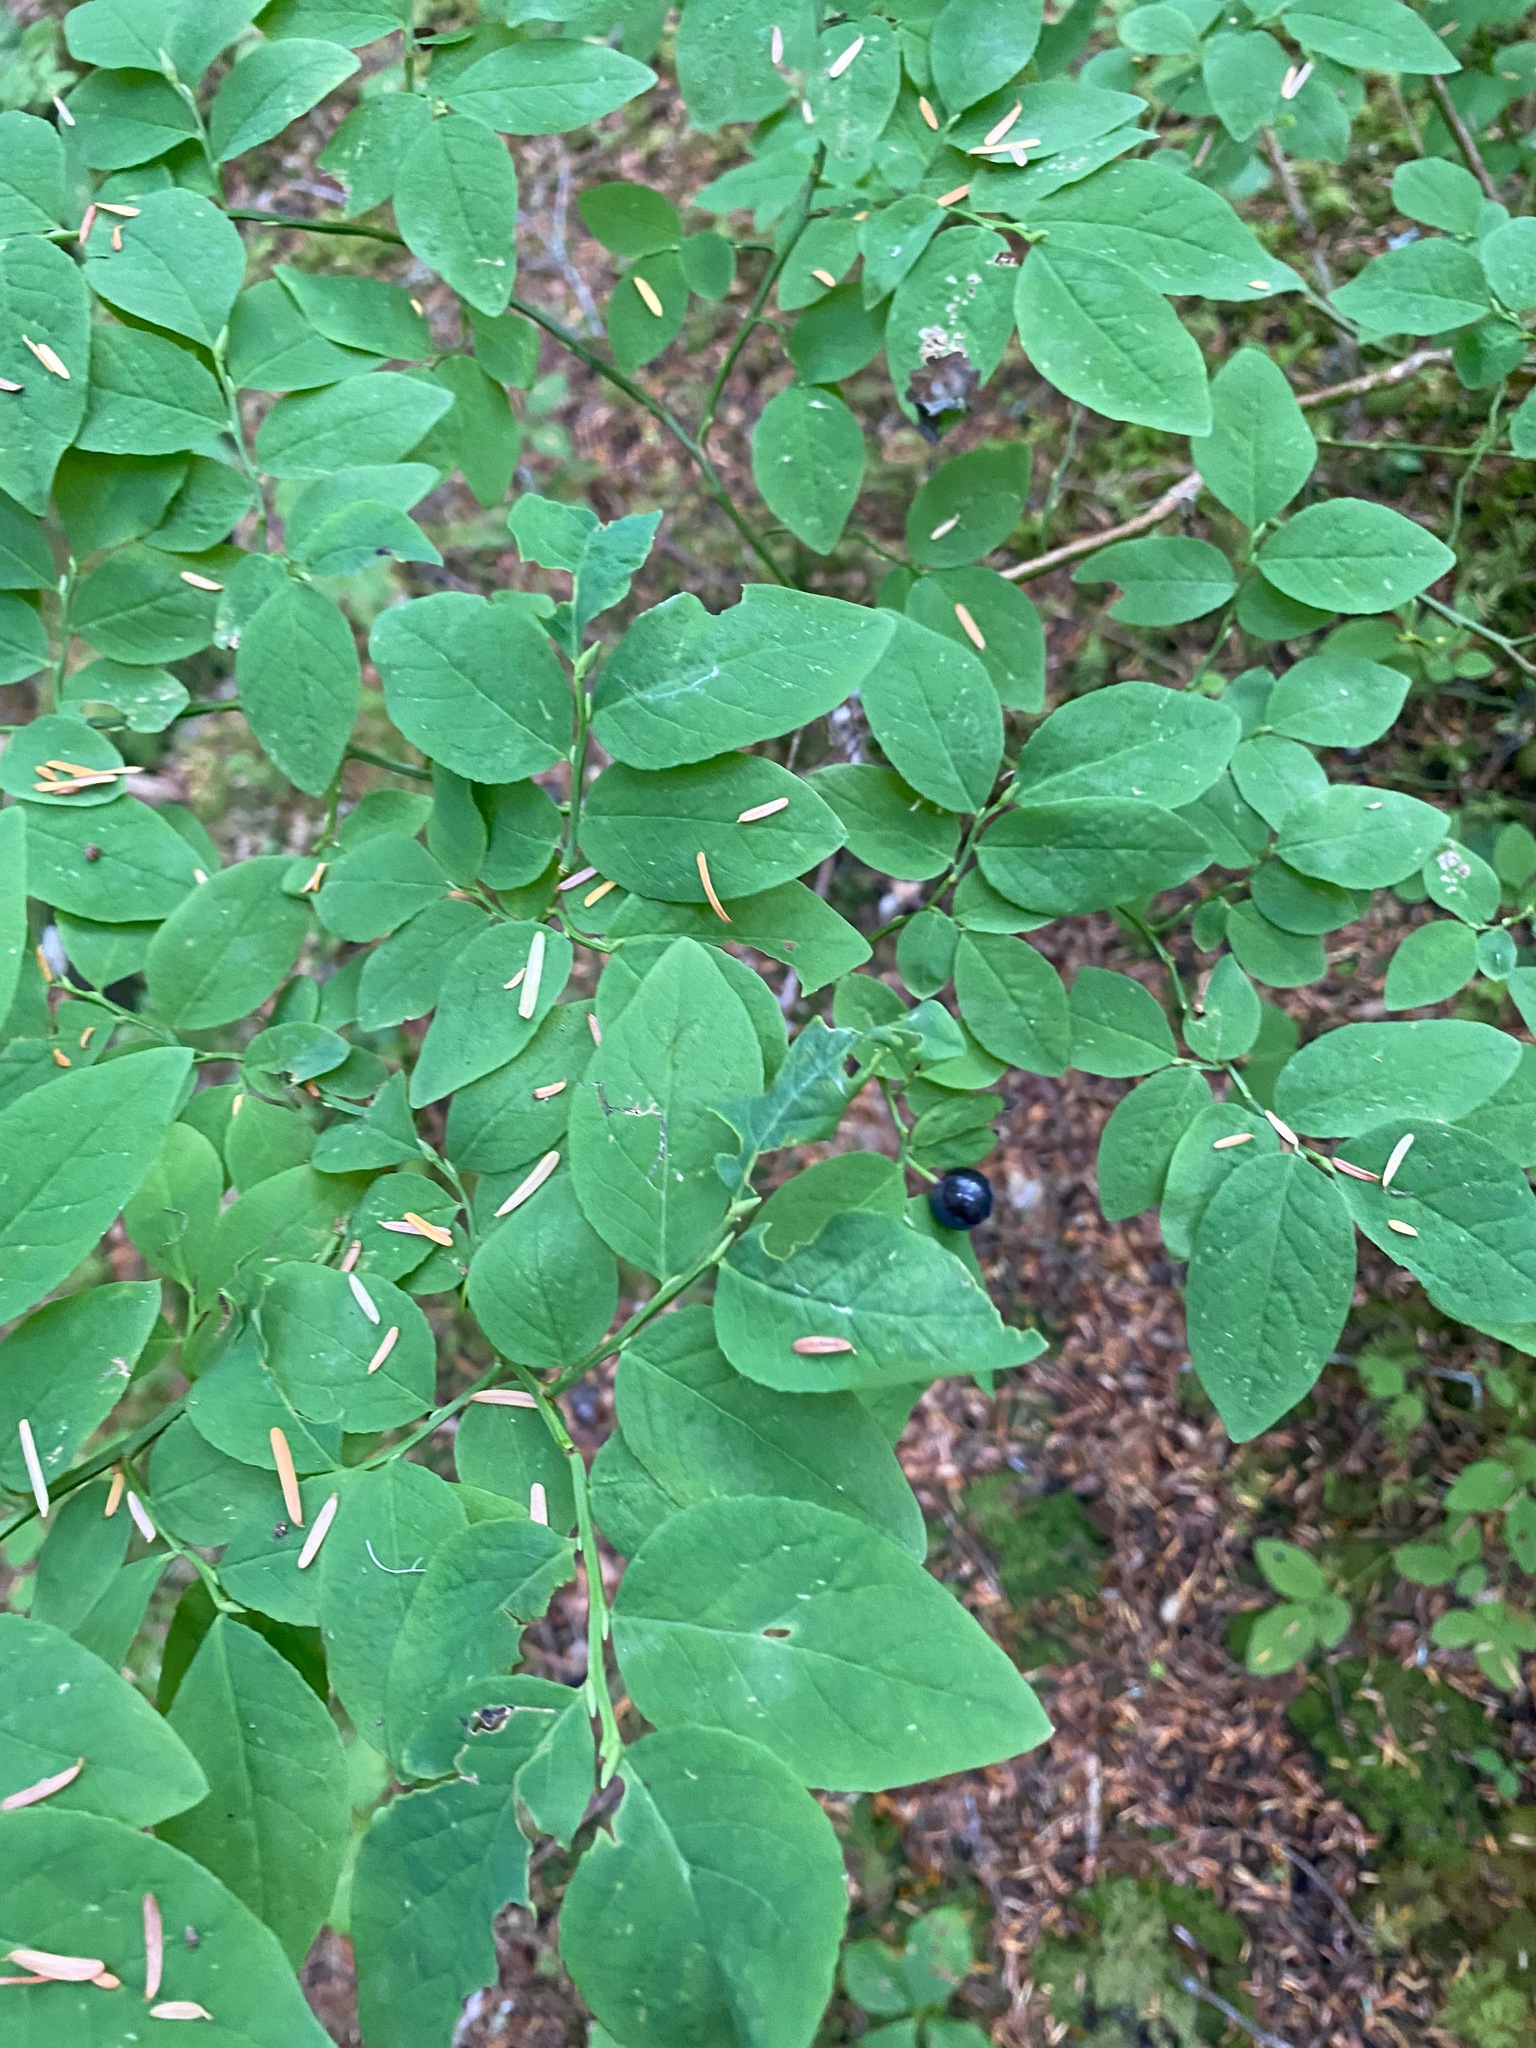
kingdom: Plantae
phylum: Tracheophyta
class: Magnoliopsida
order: Ericales
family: Ericaceae
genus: Vaccinium
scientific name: Vaccinium ovalifolium
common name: Early blueberry
